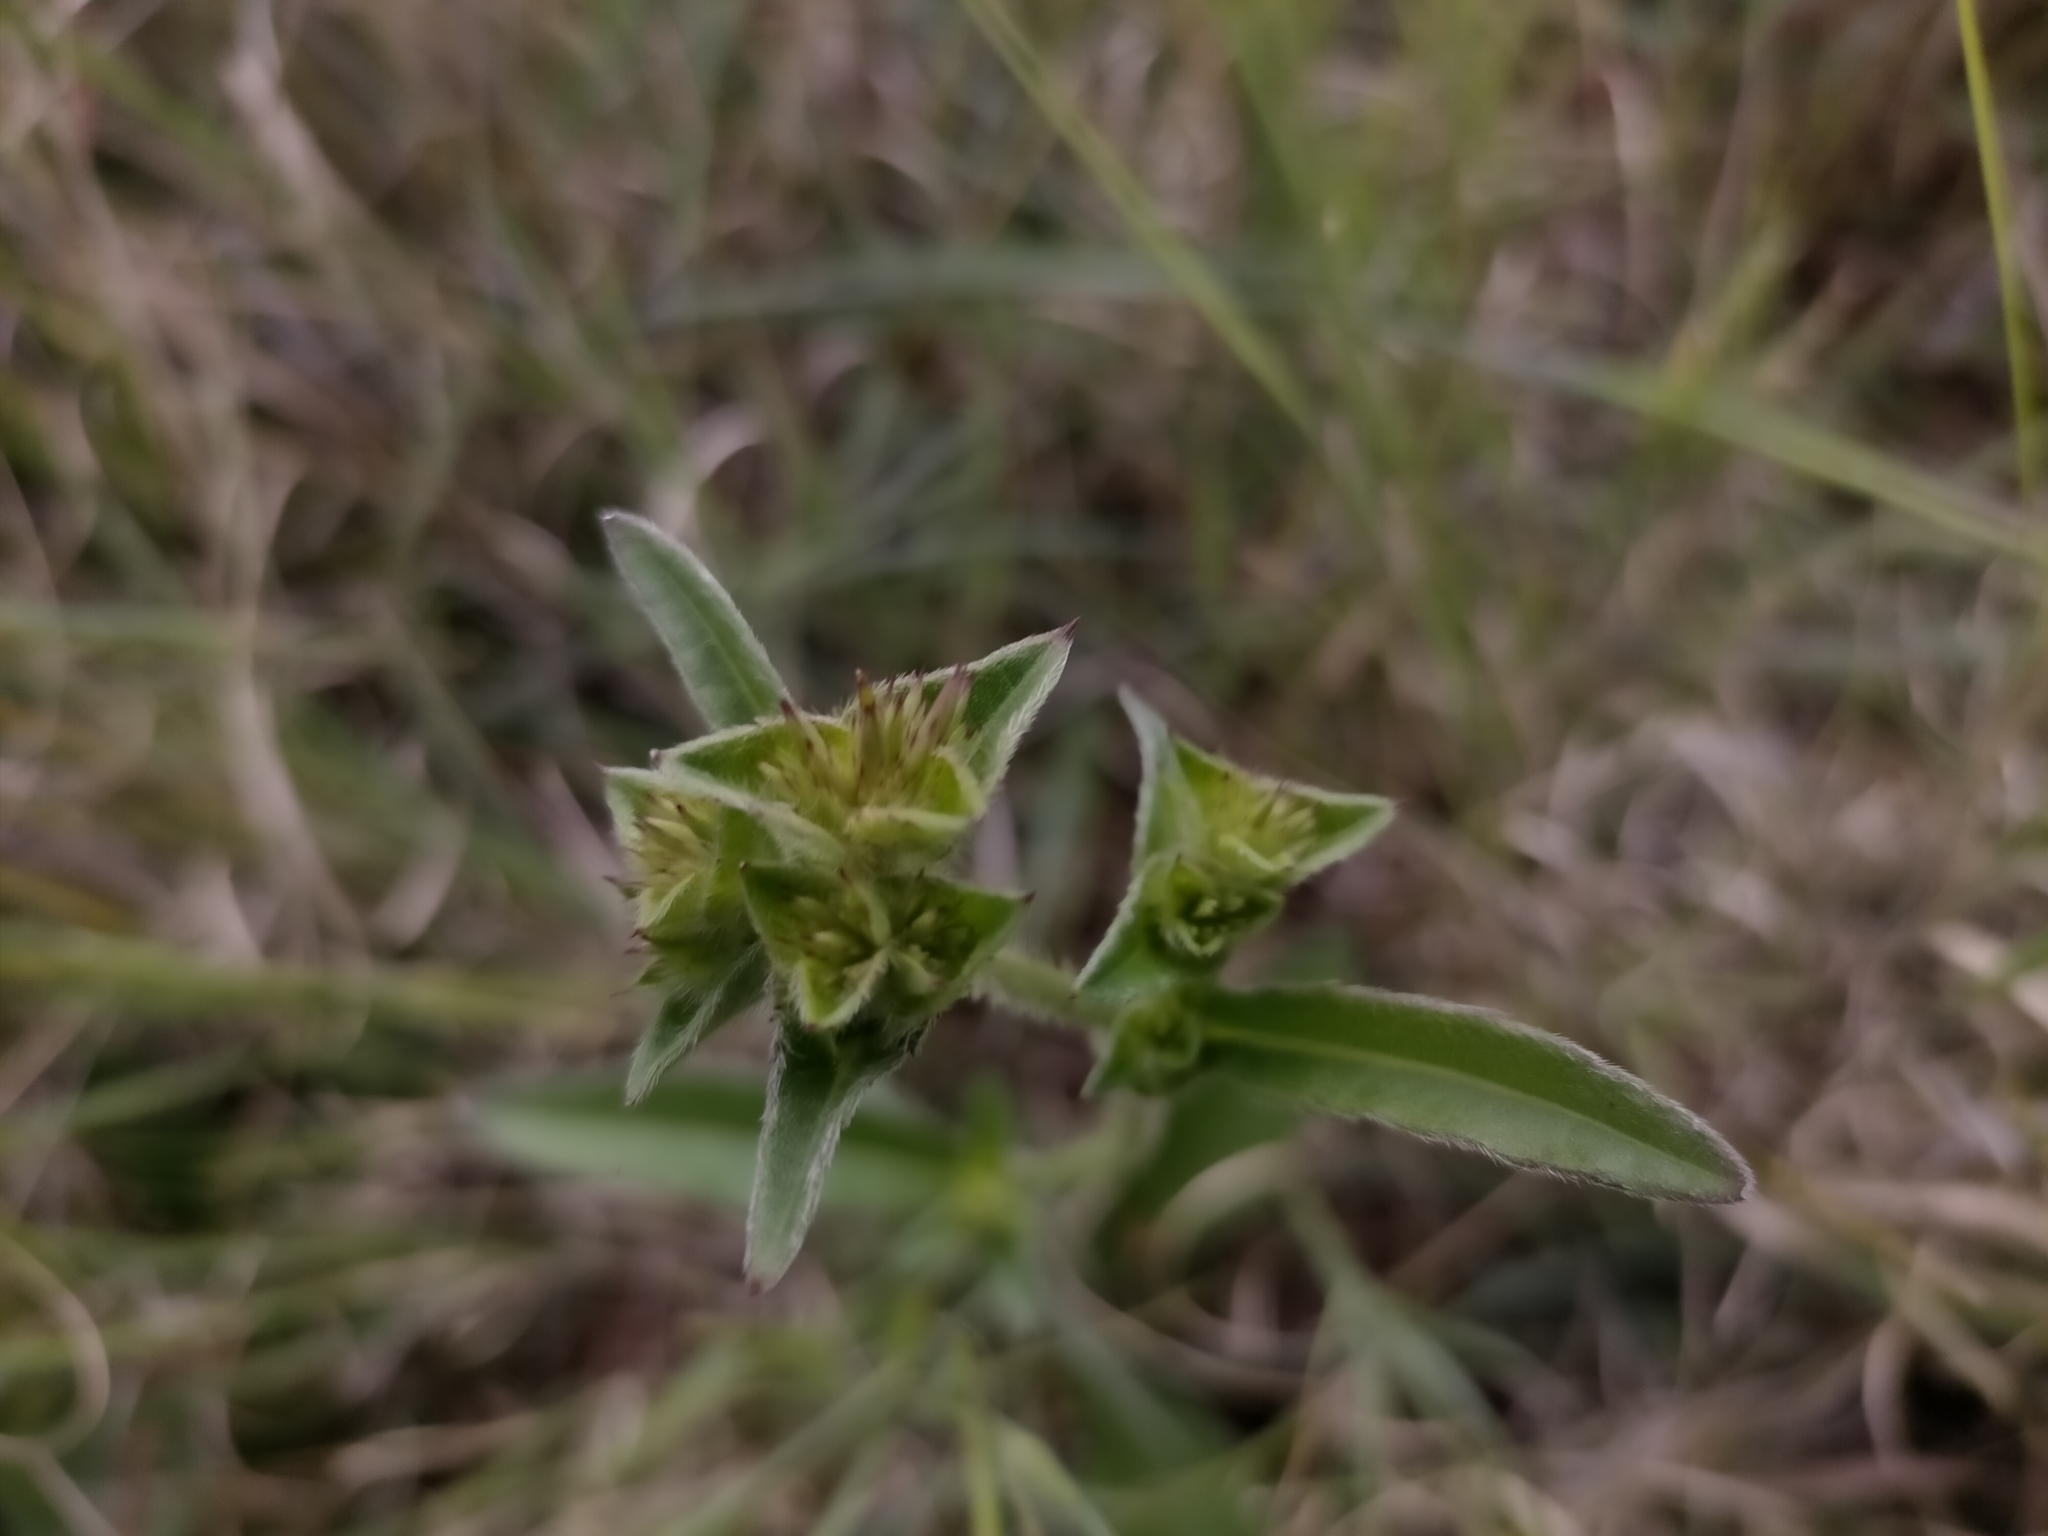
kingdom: Plantae
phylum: Tracheophyta
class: Magnoliopsida
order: Asterales
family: Asteraceae
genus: Elephantopus
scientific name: Elephantopus scaber
